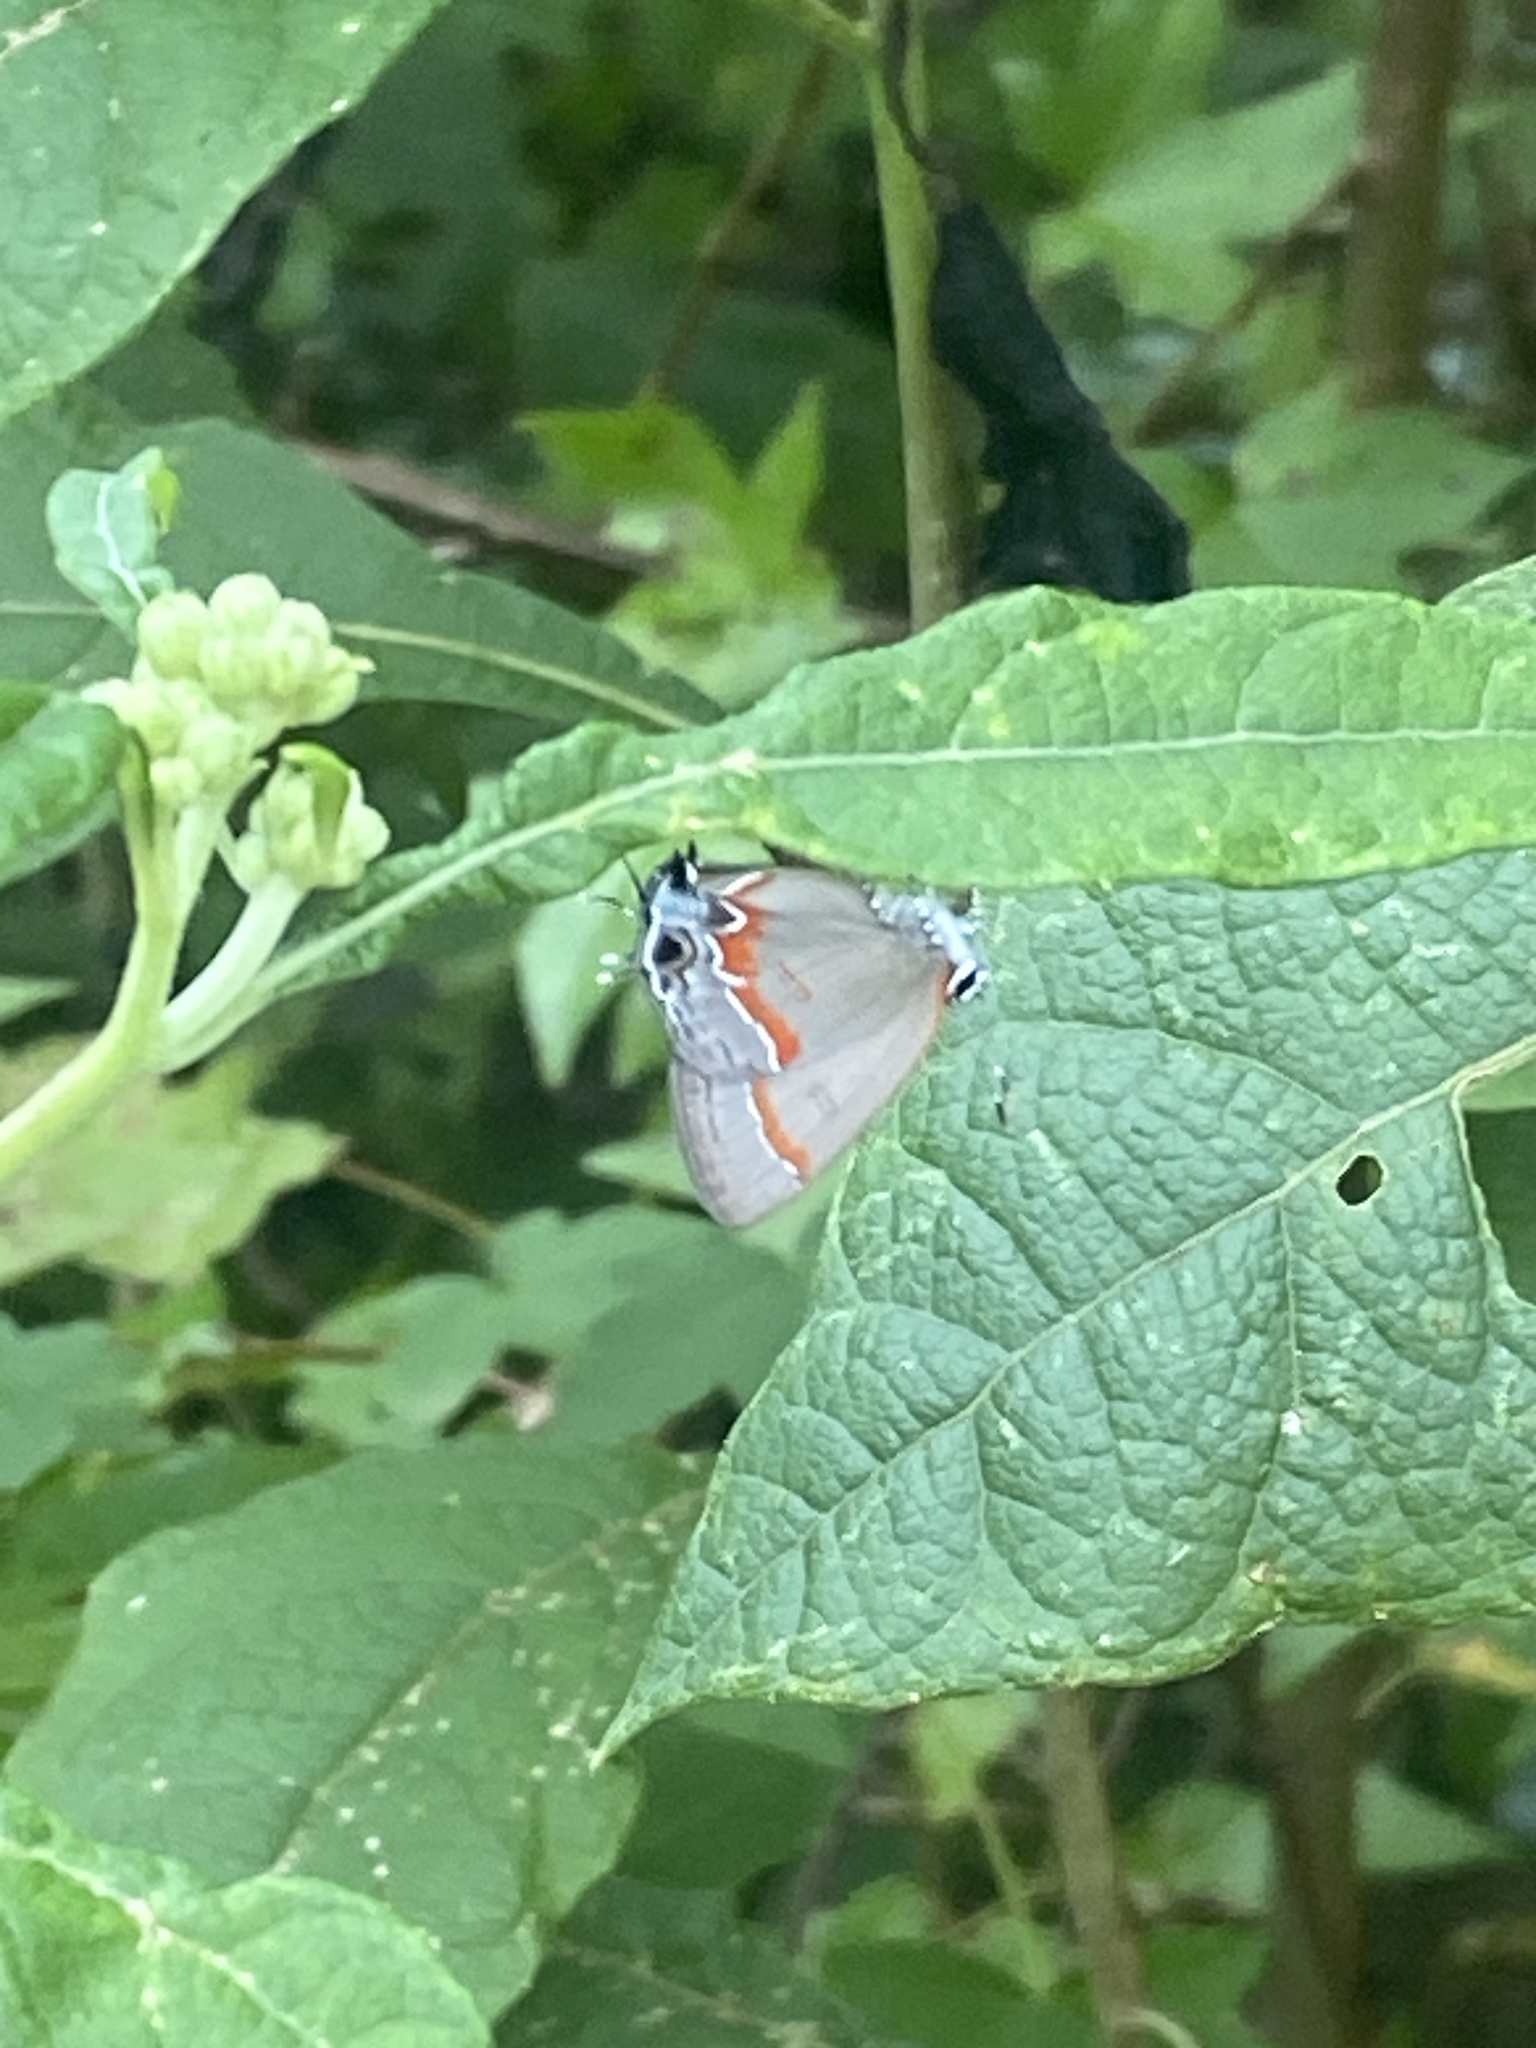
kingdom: Animalia
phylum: Arthropoda
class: Insecta
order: Lepidoptera
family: Lycaenidae
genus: Calycopis
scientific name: Calycopis cecrops
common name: Red-banded hairstreak
